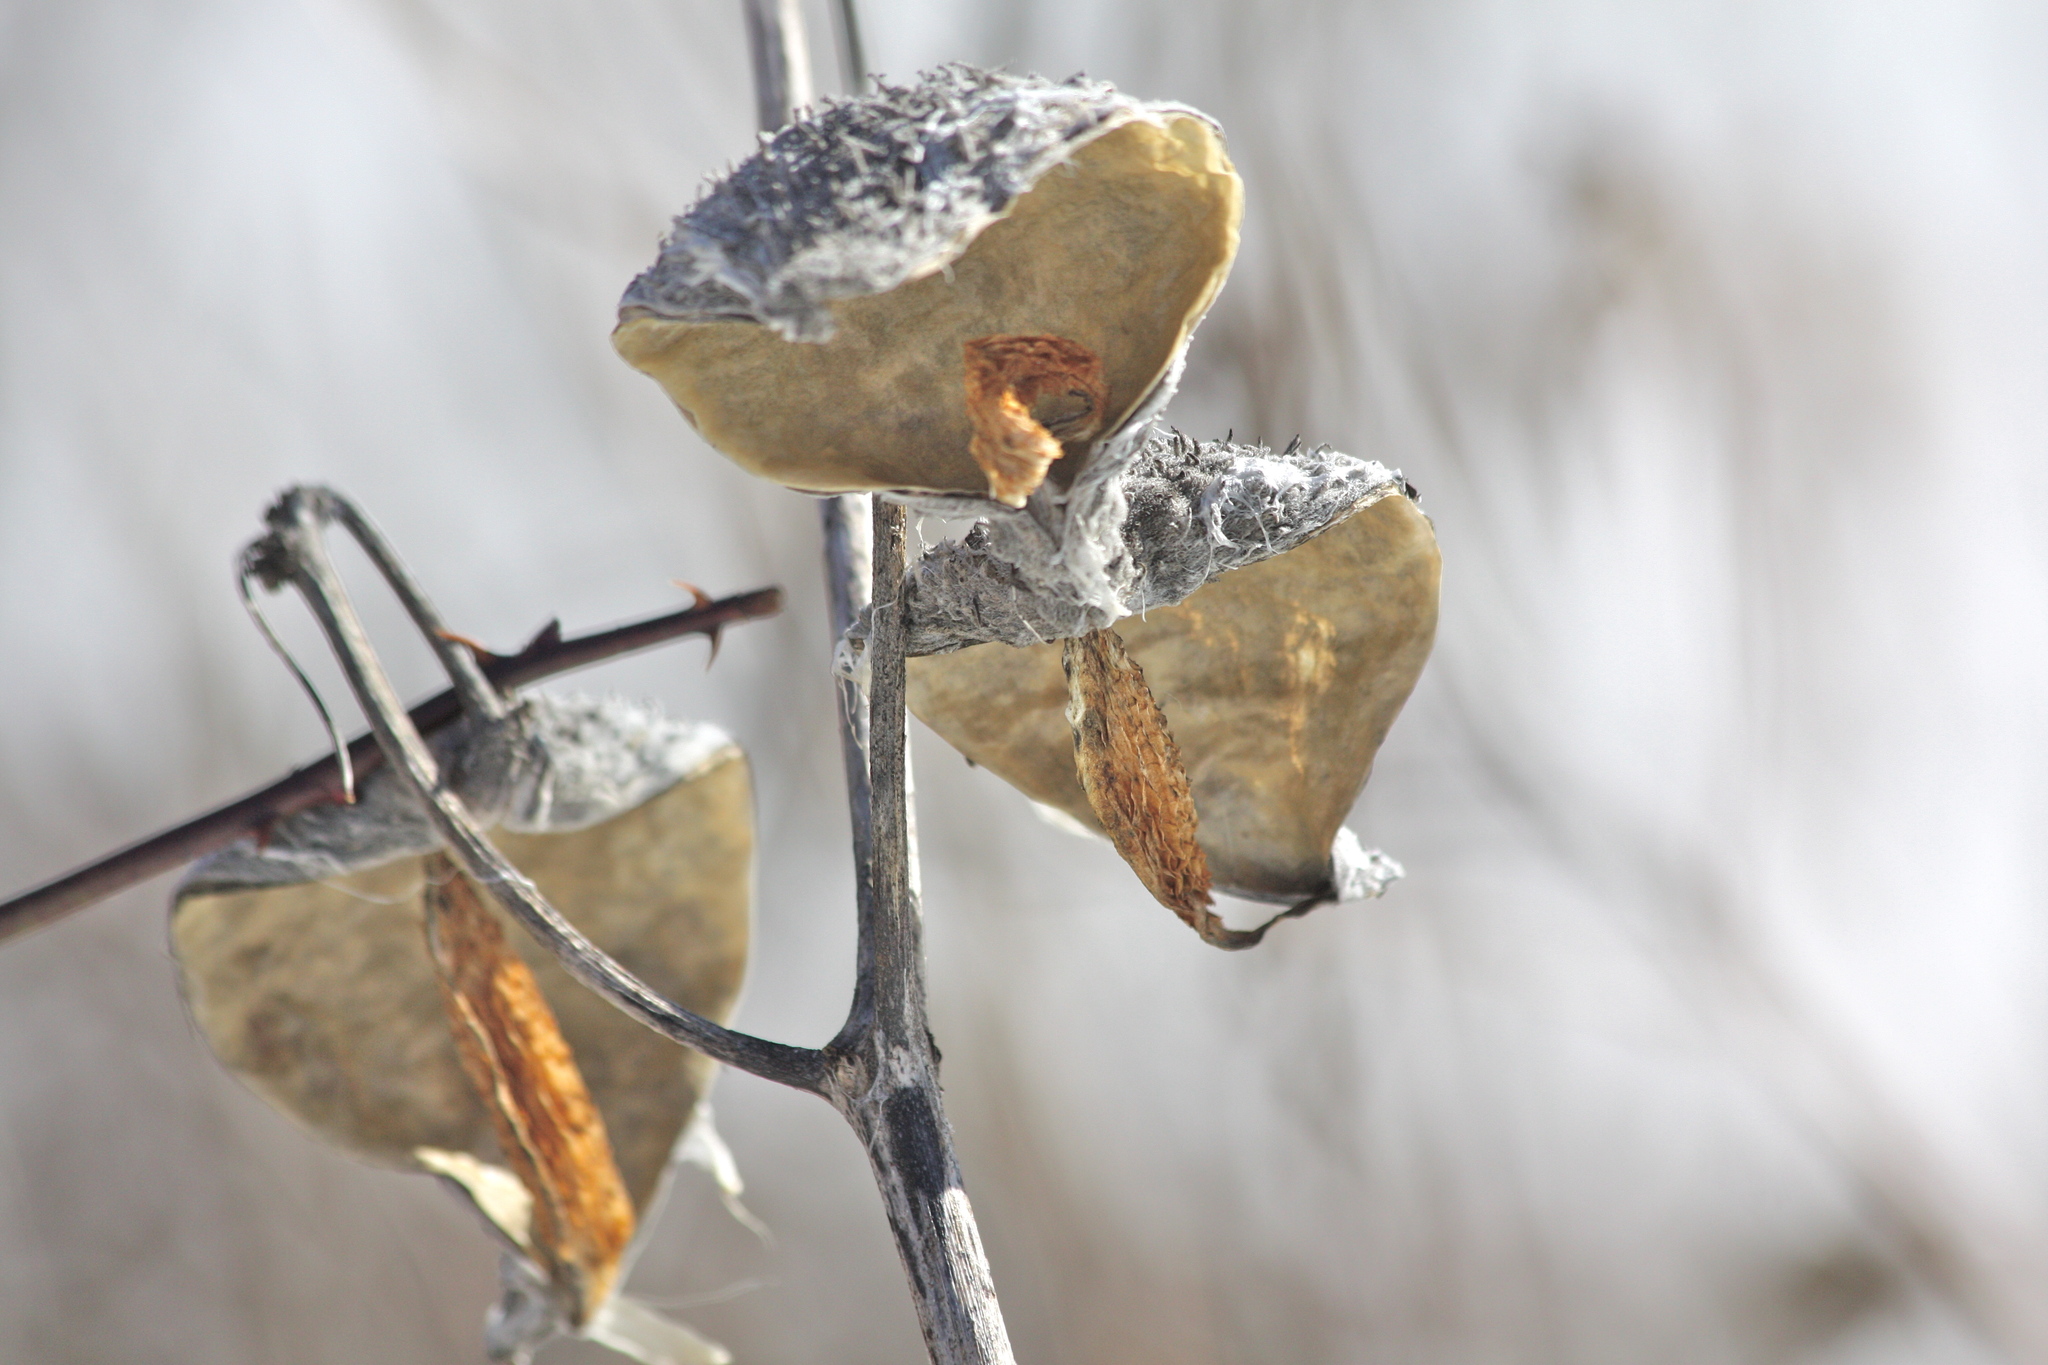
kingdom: Plantae
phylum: Tracheophyta
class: Magnoliopsida
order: Gentianales
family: Apocynaceae
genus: Asclepias
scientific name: Asclepias syriaca
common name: Common milkweed
